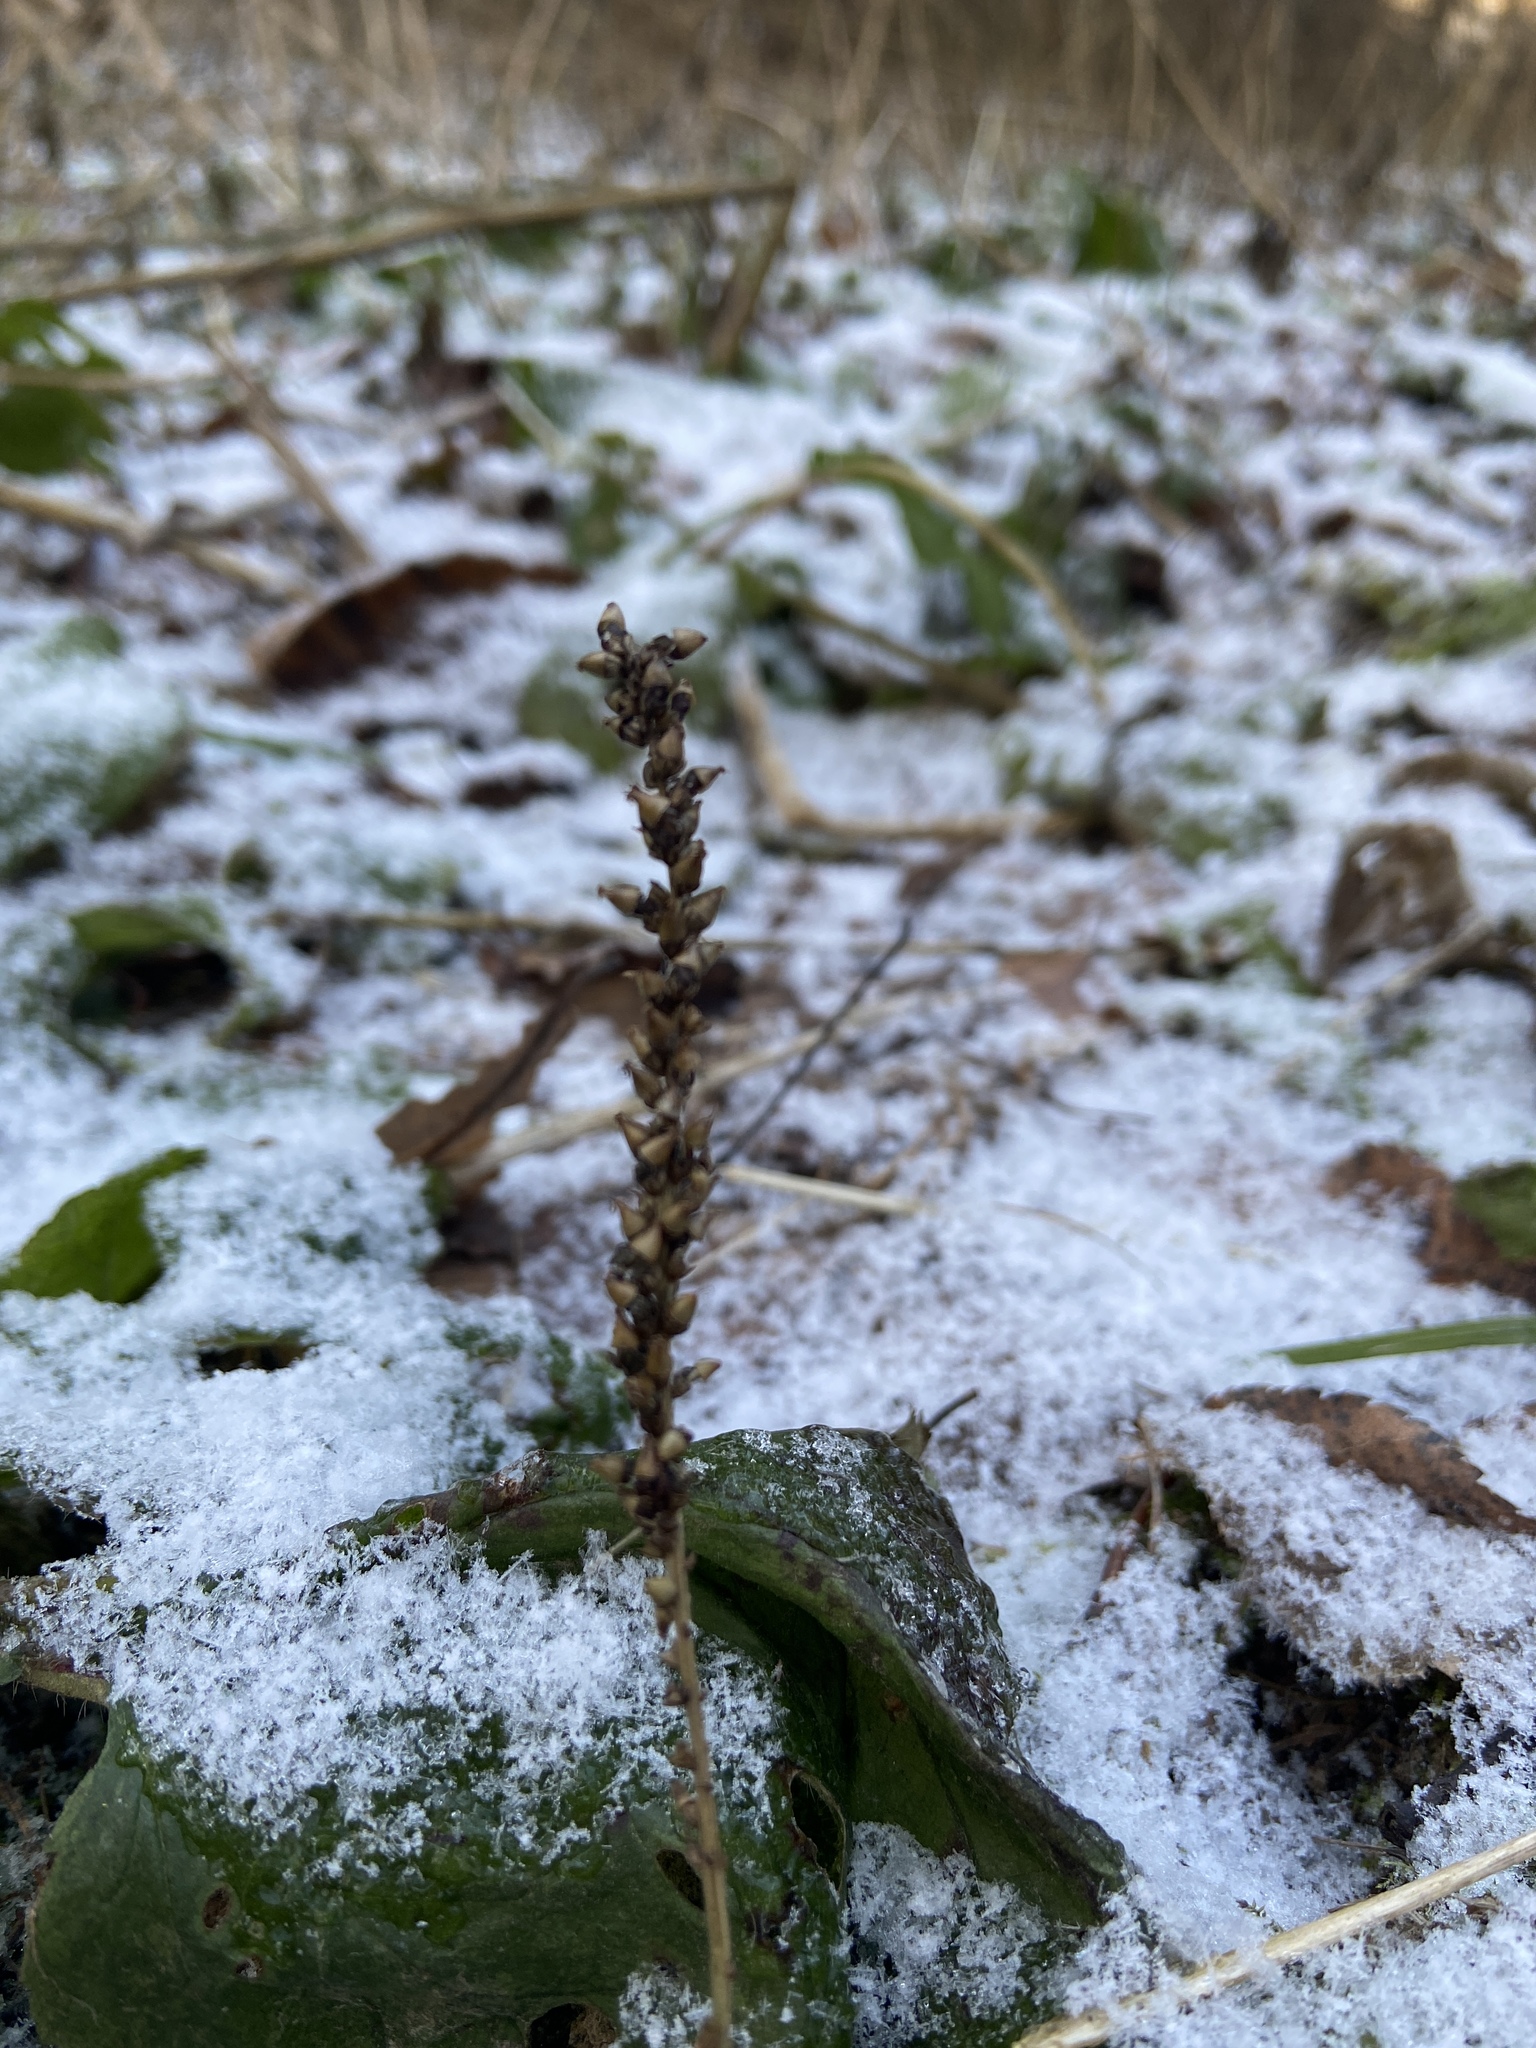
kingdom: Plantae
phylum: Tracheophyta
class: Magnoliopsida
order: Lamiales
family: Plantaginaceae
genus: Plantago
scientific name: Plantago major
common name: Common plantain
